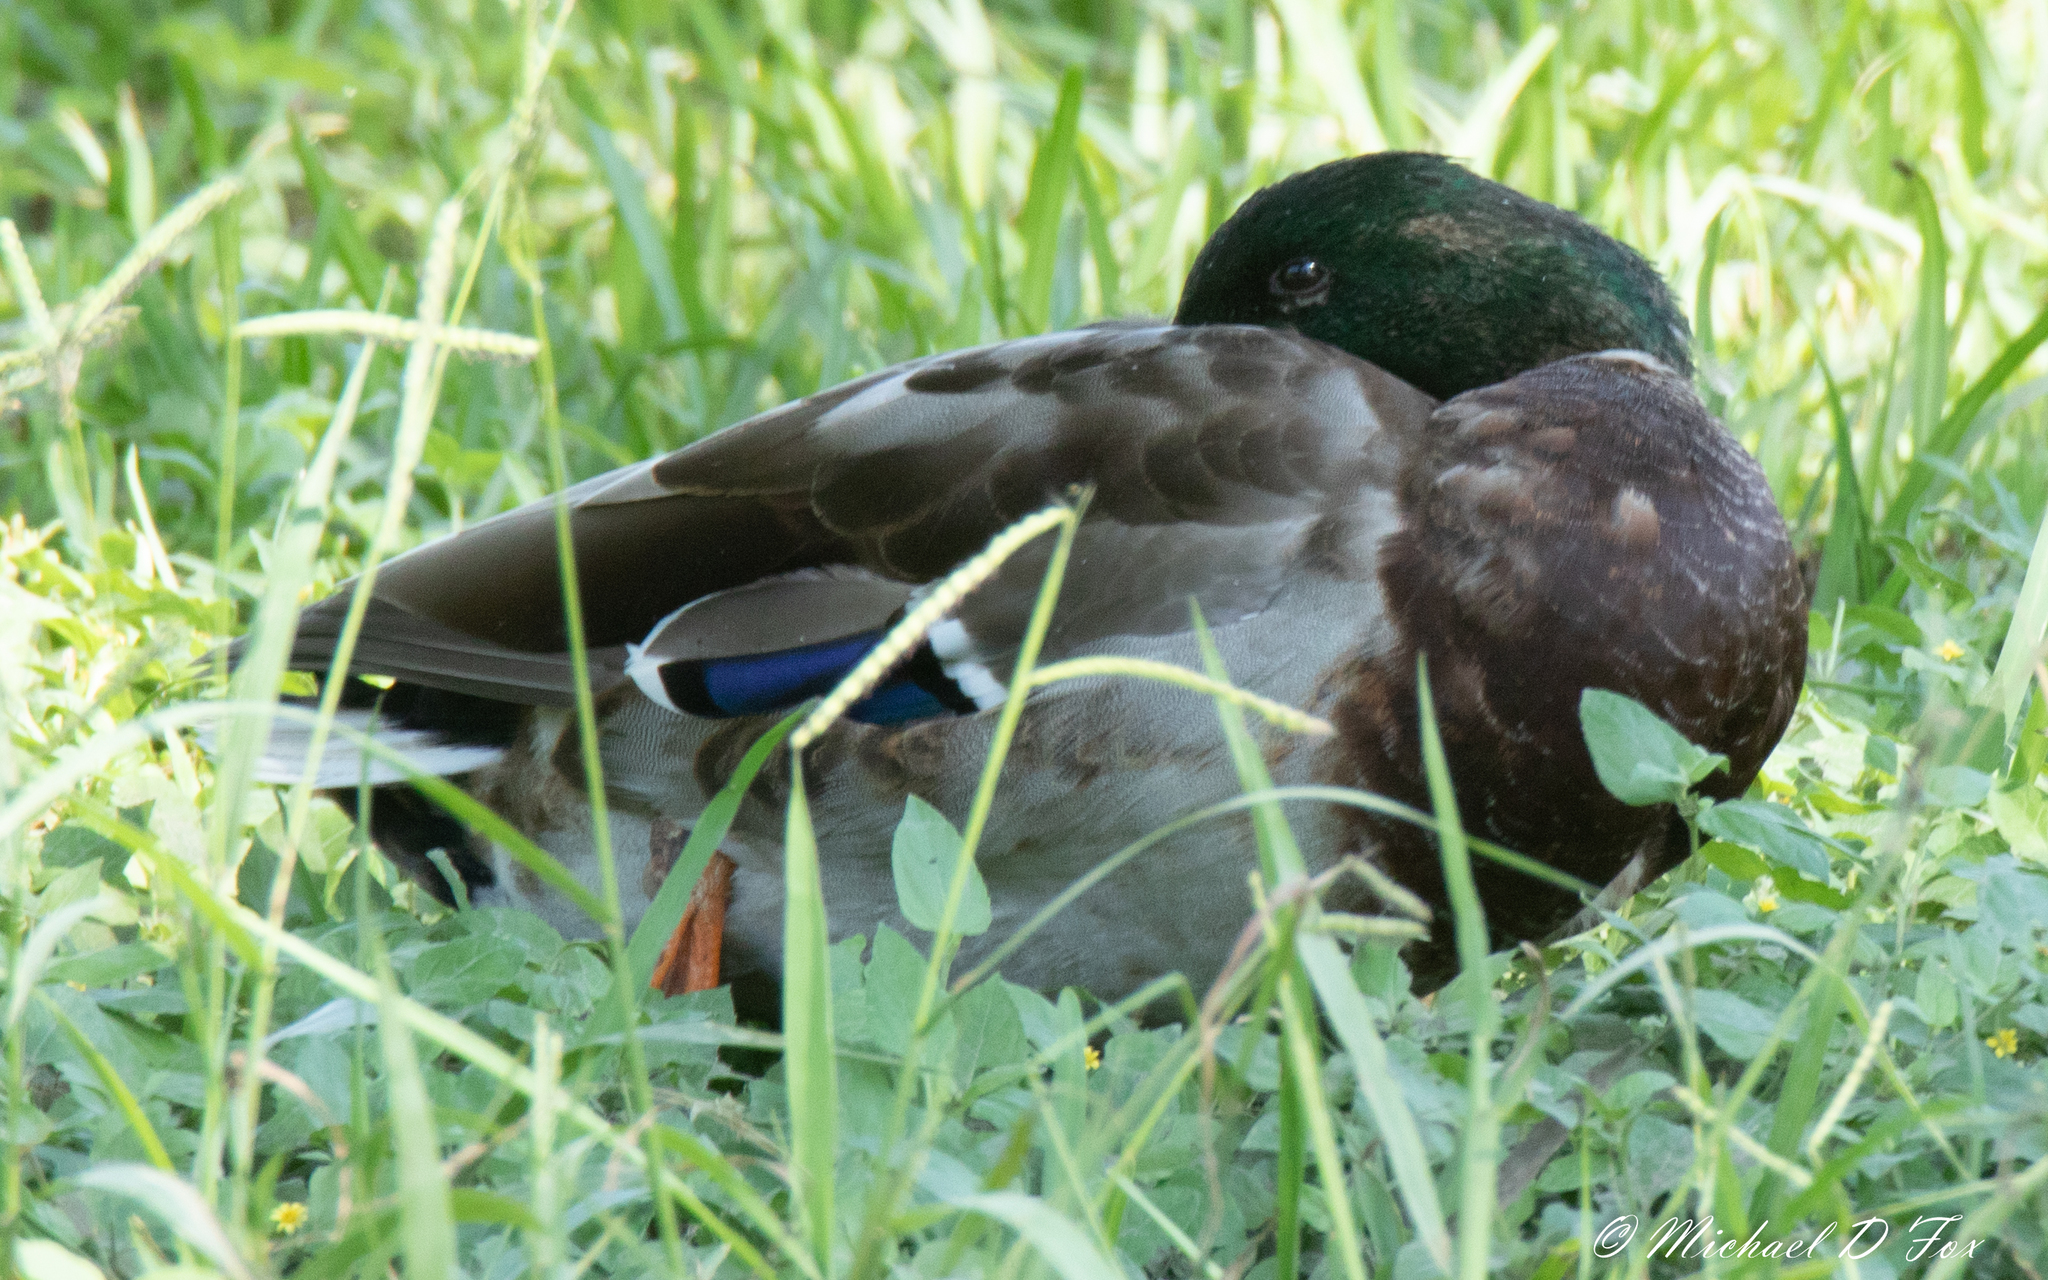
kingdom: Animalia
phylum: Chordata
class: Aves
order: Anseriformes
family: Anatidae
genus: Anas
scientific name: Anas platyrhynchos
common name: Mallard
